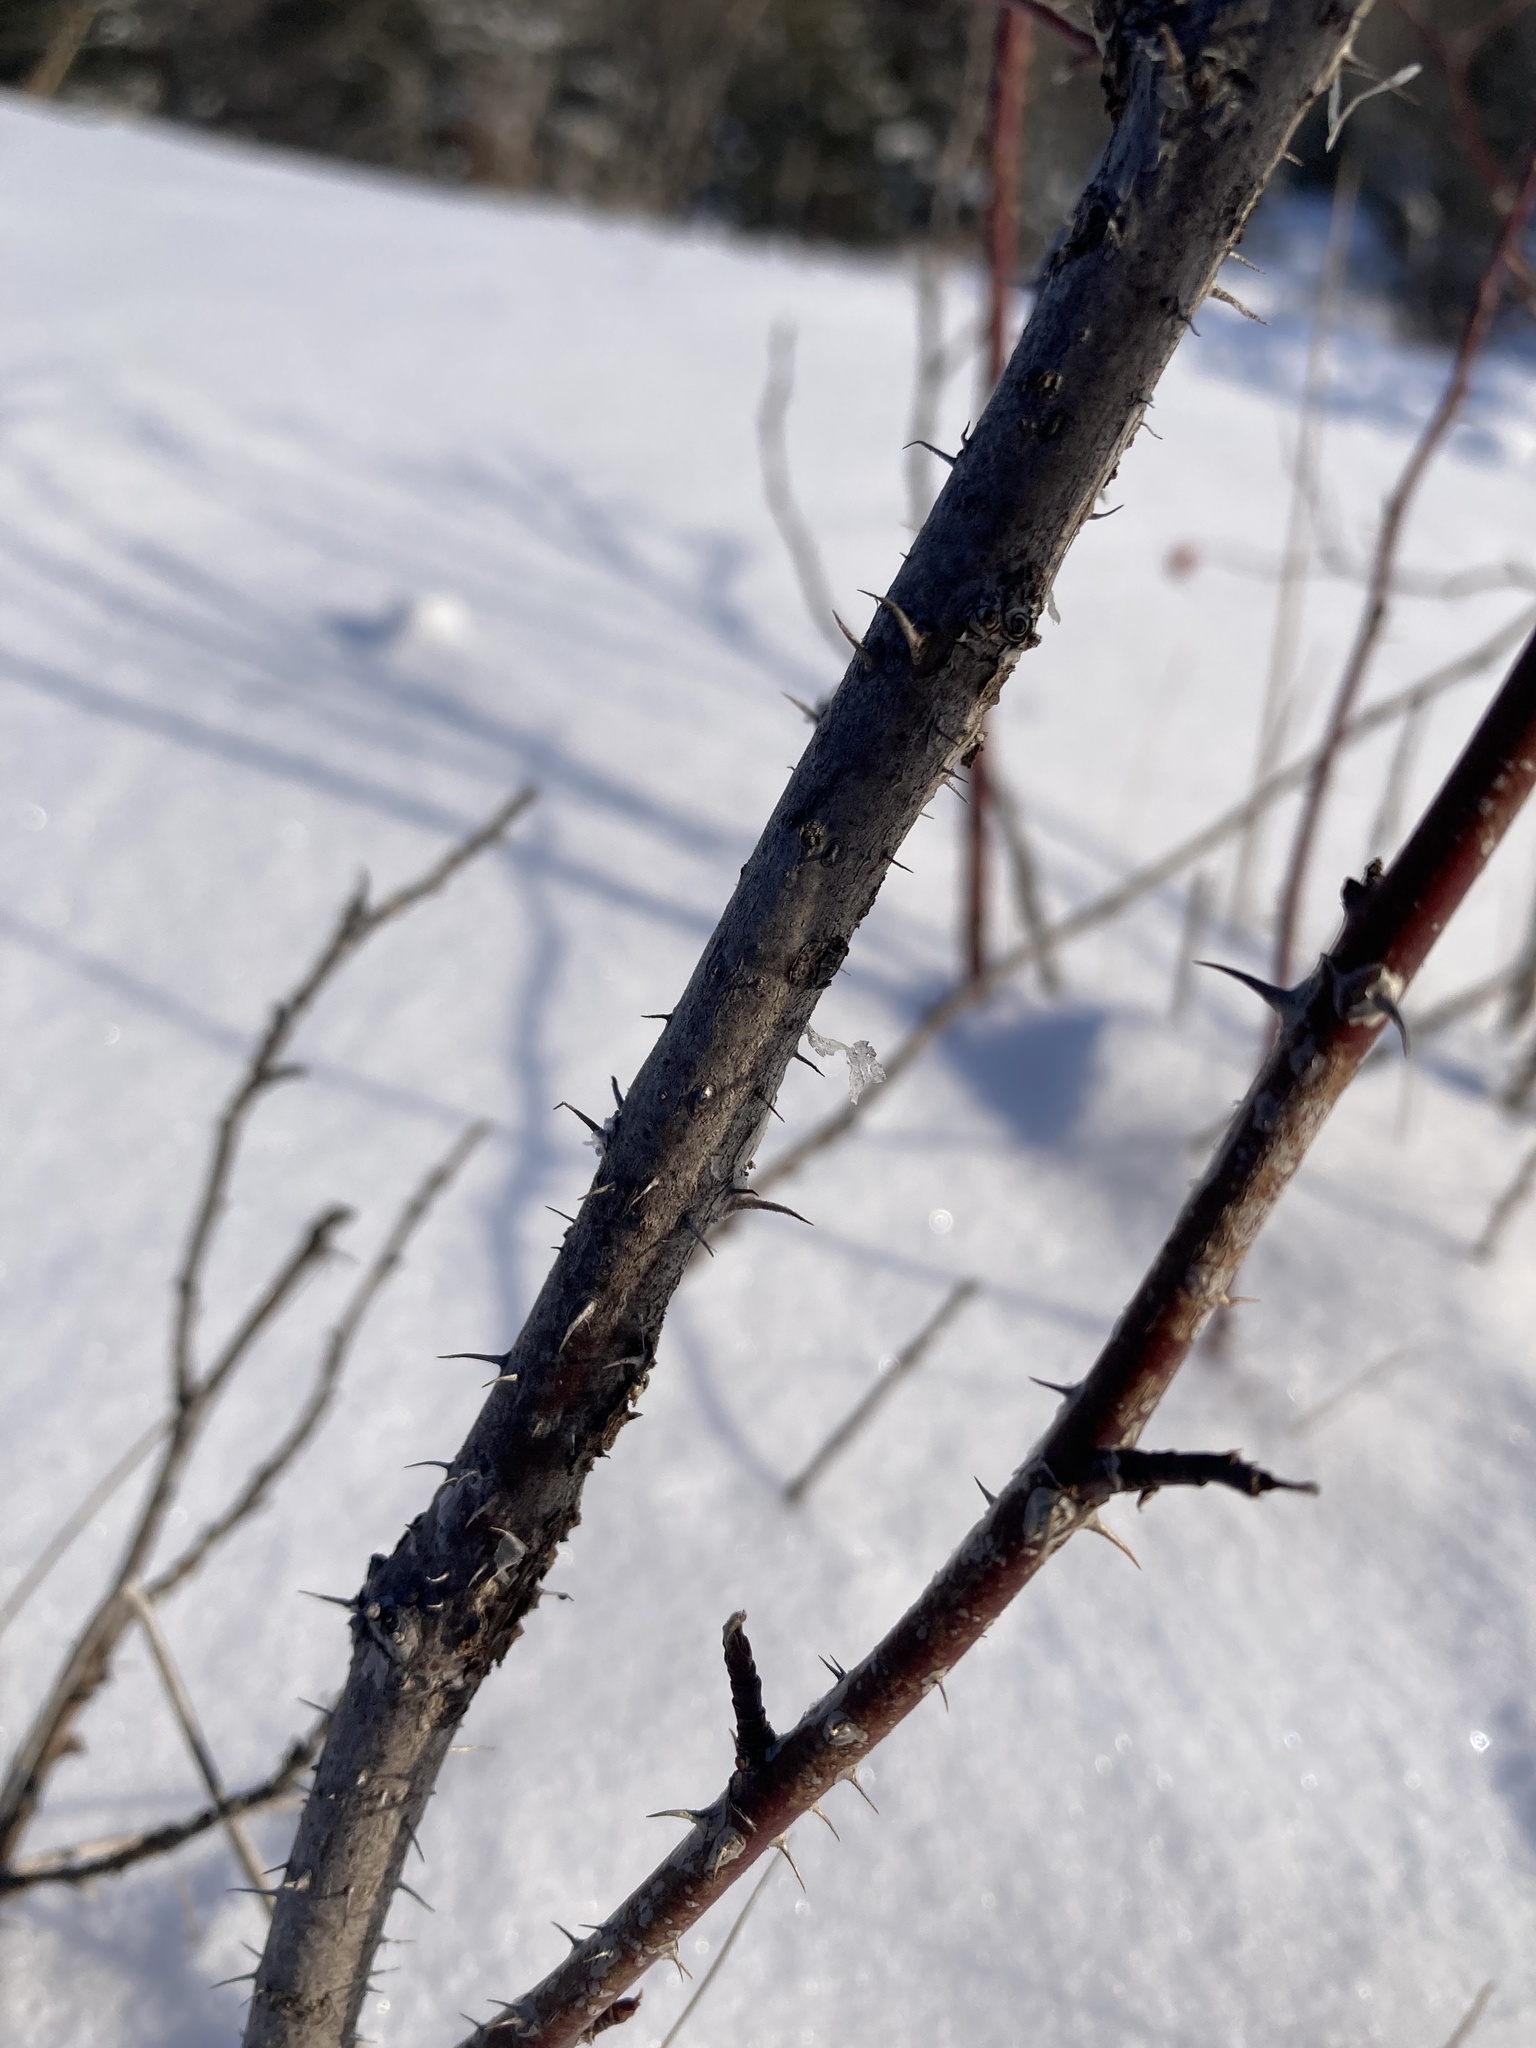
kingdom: Plantae
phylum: Tracheophyta
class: Magnoliopsida
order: Rosales
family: Rosaceae
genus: Rosa
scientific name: Rosa woodsii
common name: Woods's rose
